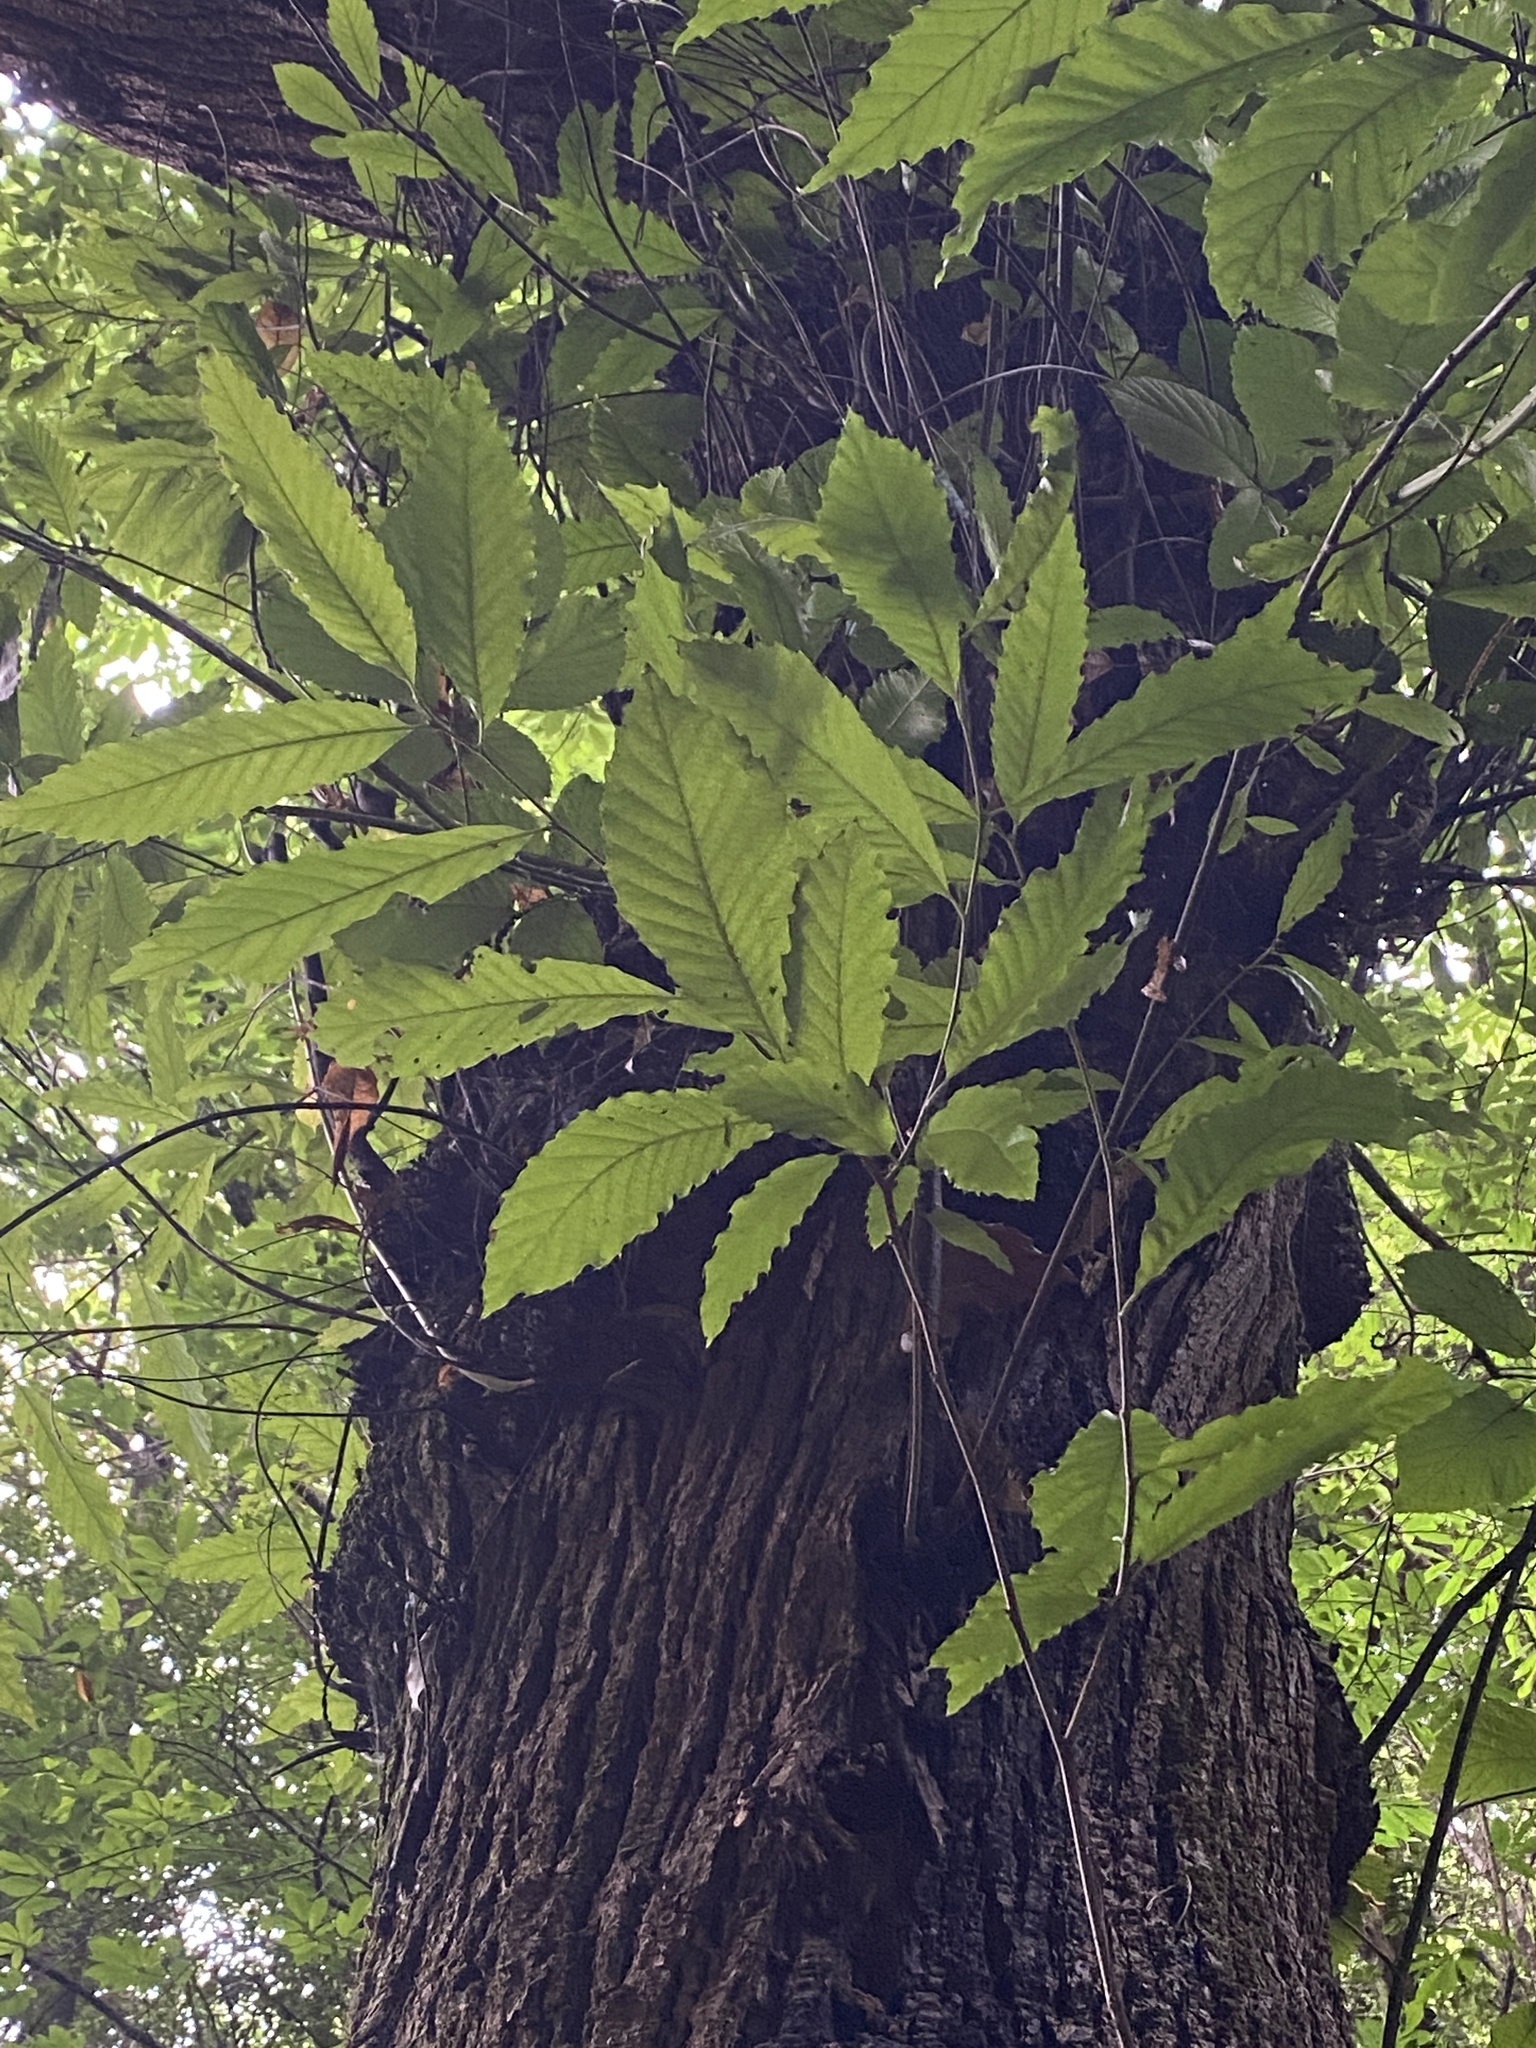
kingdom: Plantae
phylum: Tracheophyta
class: Magnoliopsida
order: Fagales
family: Fagaceae
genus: Castanea
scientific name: Castanea sativa
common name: Sweet chestnut
